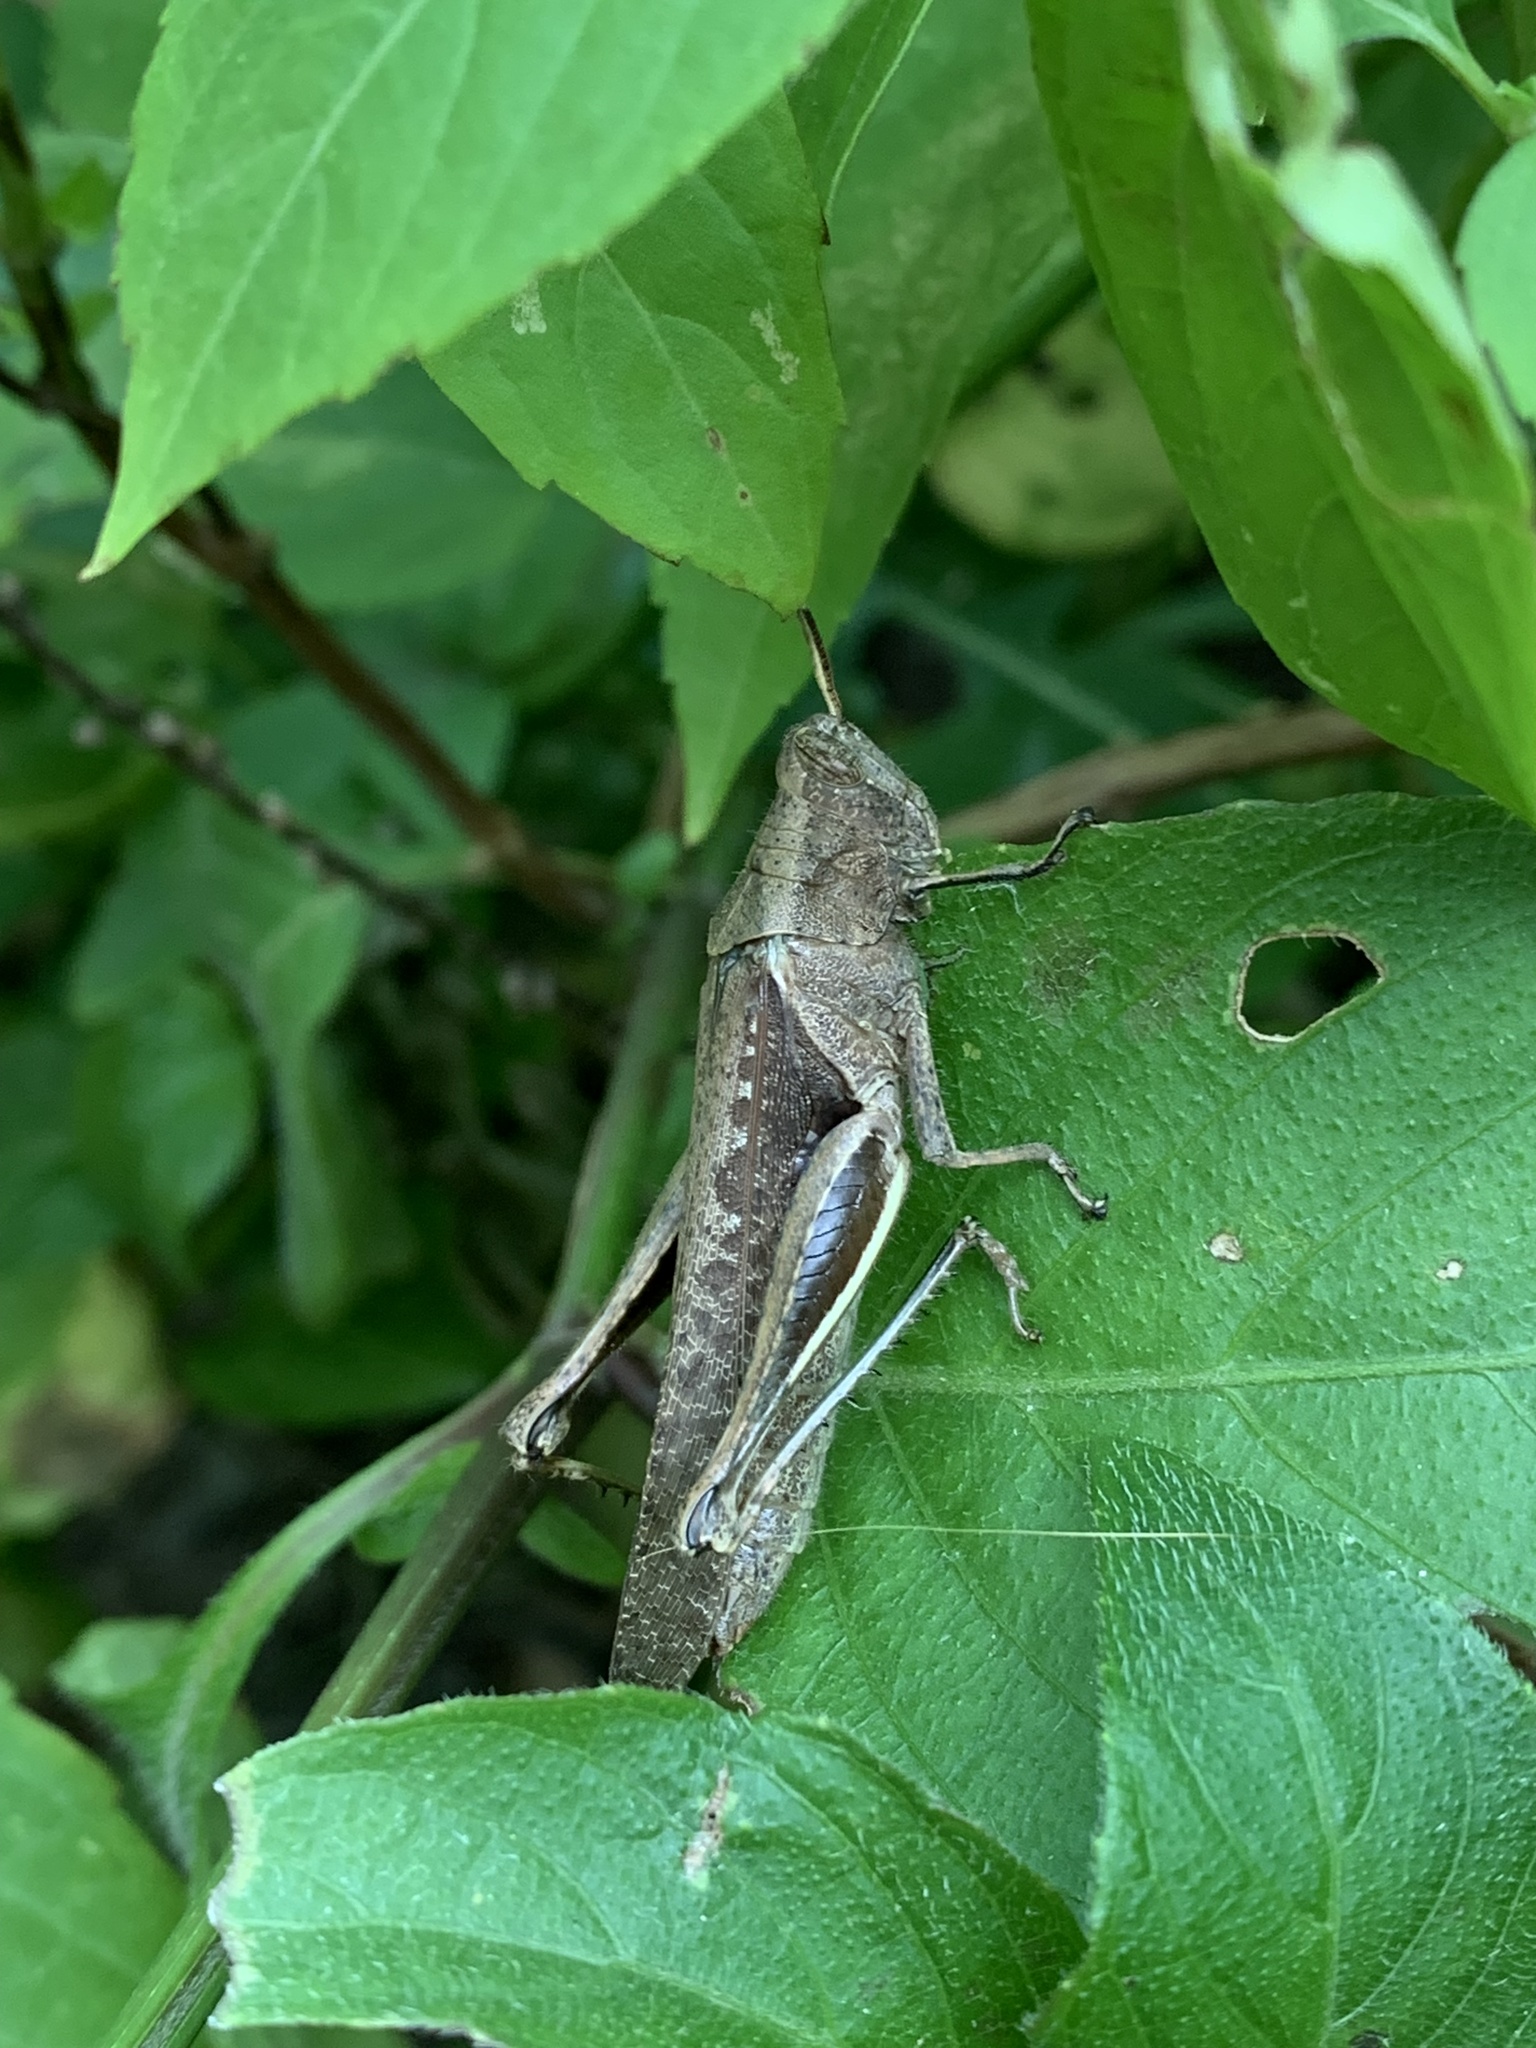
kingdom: Animalia
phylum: Arthropoda
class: Insecta
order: Orthoptera
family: Acrididae
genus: Abracris
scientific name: Abracris flavolineata
